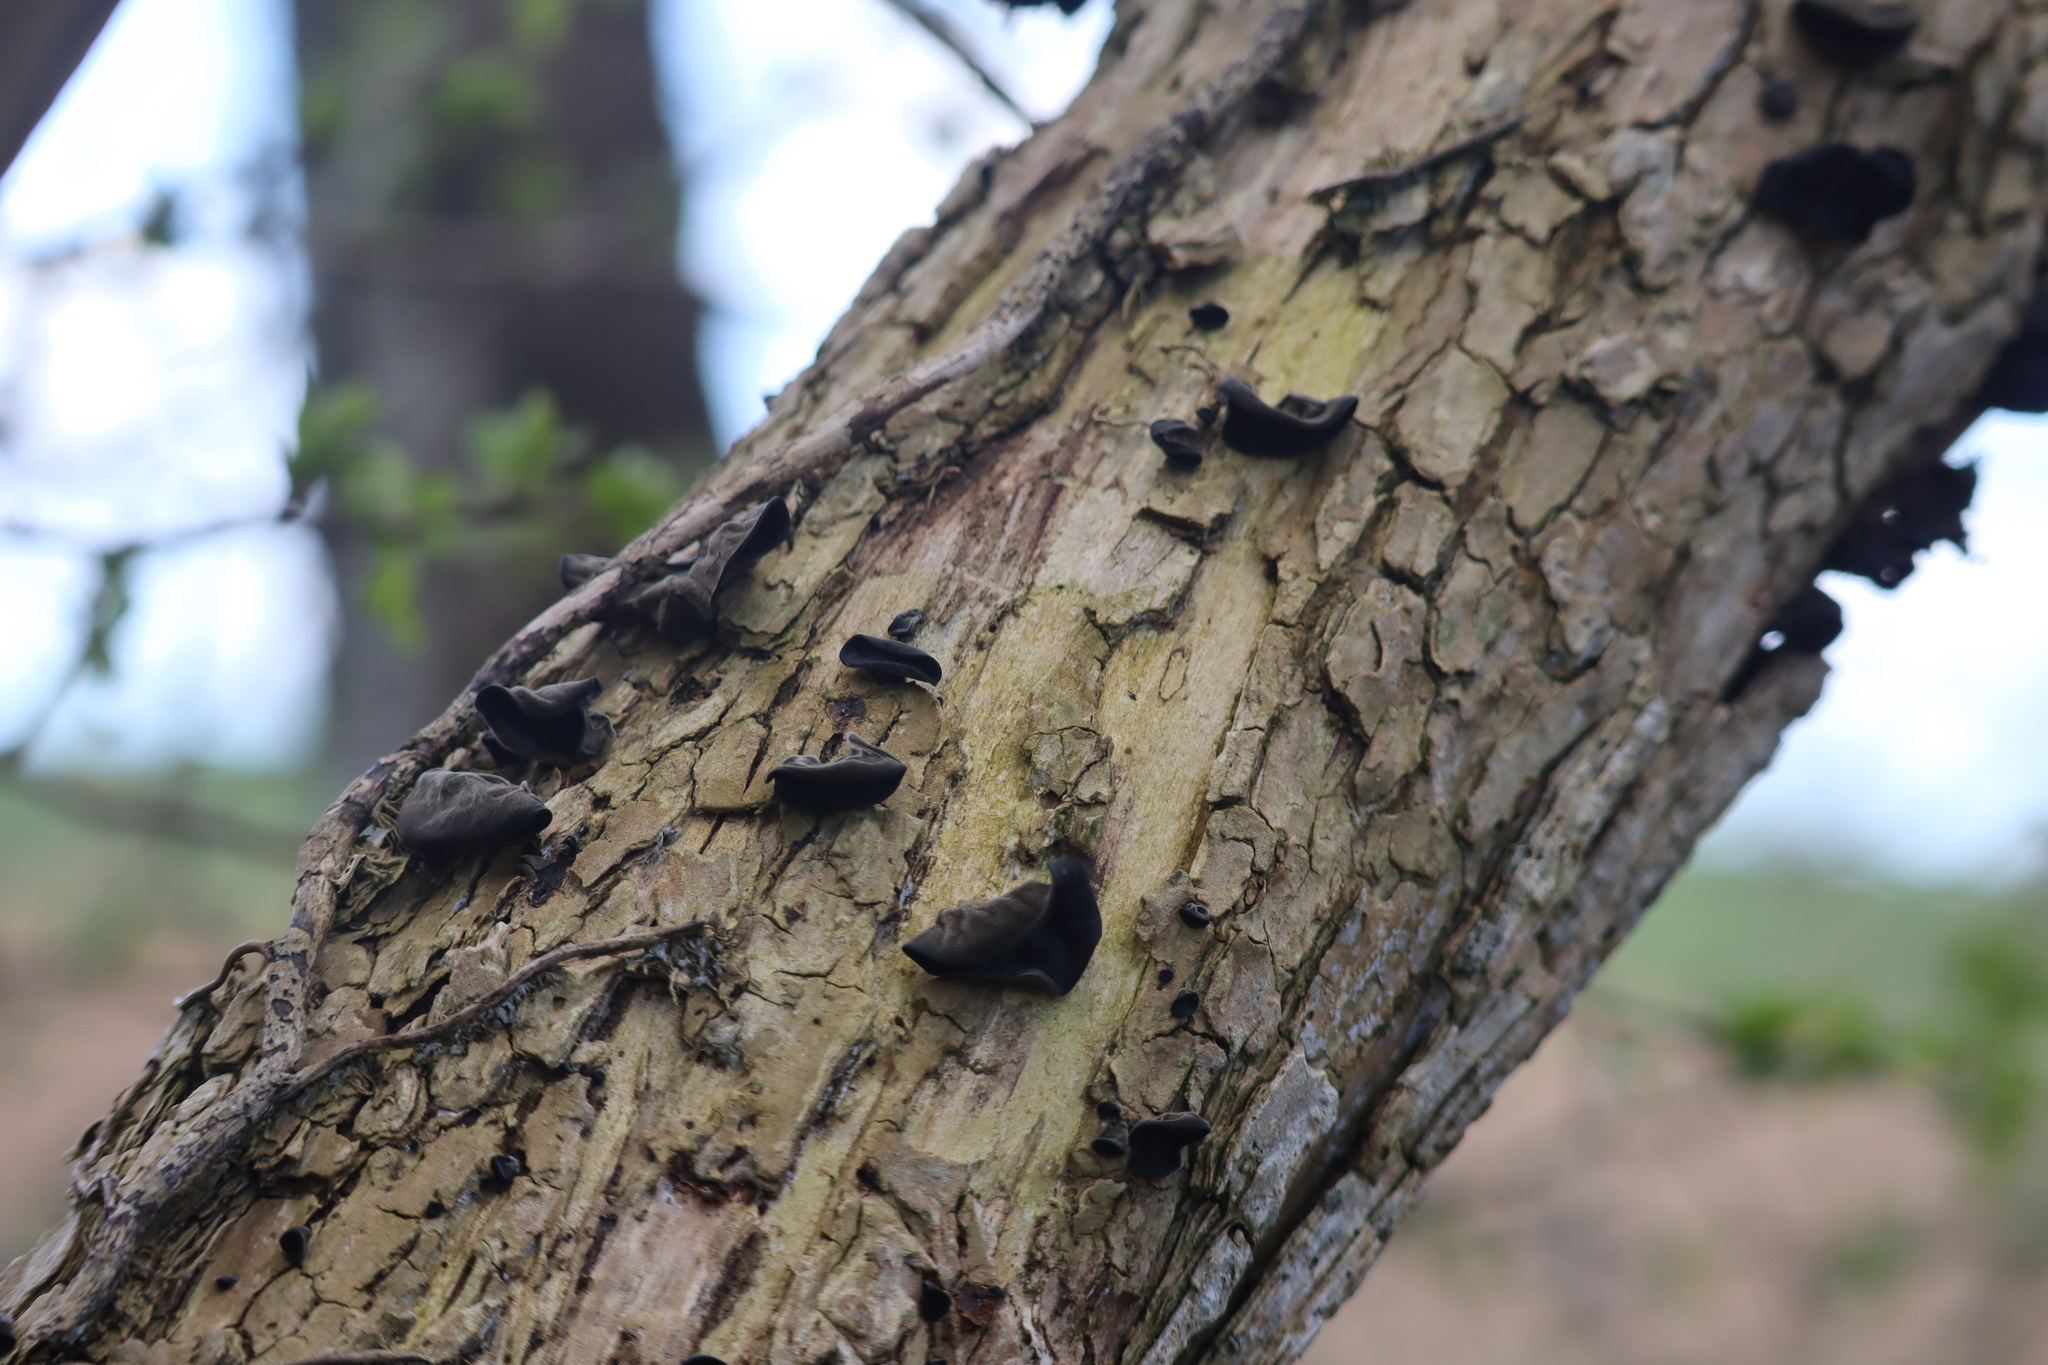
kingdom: Fungi
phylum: Basidiomycota
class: Agaricomycetes
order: Auriculariales
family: Auriculariaceae
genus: Auricularia
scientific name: Auricularia auricula-judae
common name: Jelly ear
